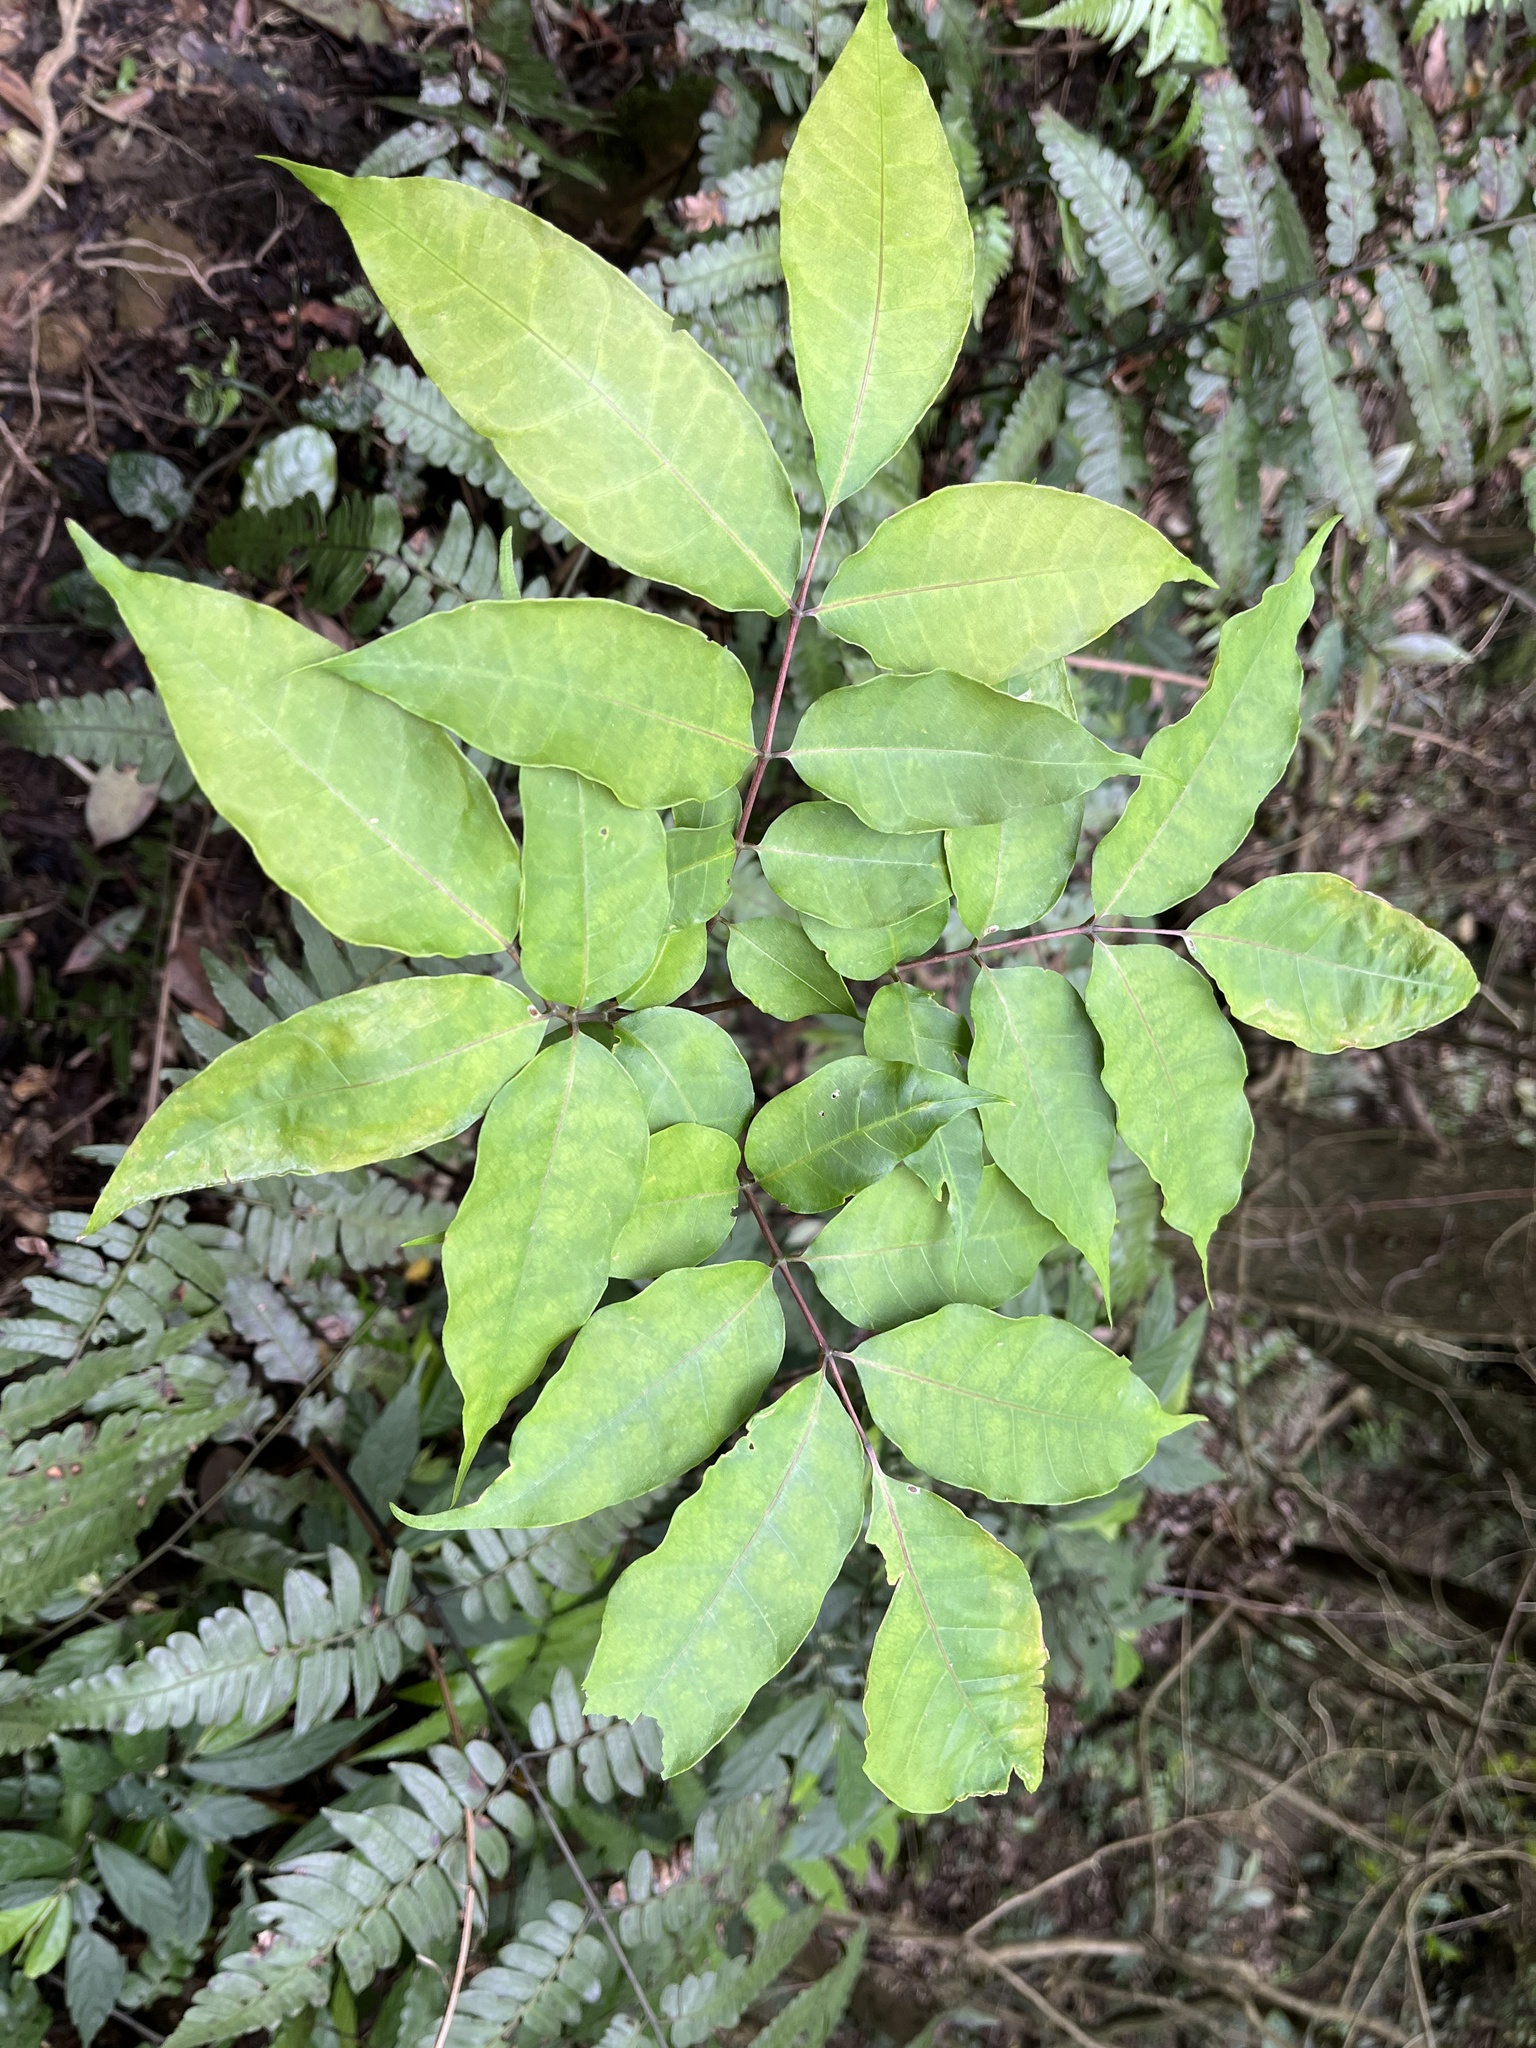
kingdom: Plantae
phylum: Tracheophyta
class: Magnoliopsida
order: Brassicales
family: Akaniaceae
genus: Bretschneidera
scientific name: Bretschneidera sinensis
